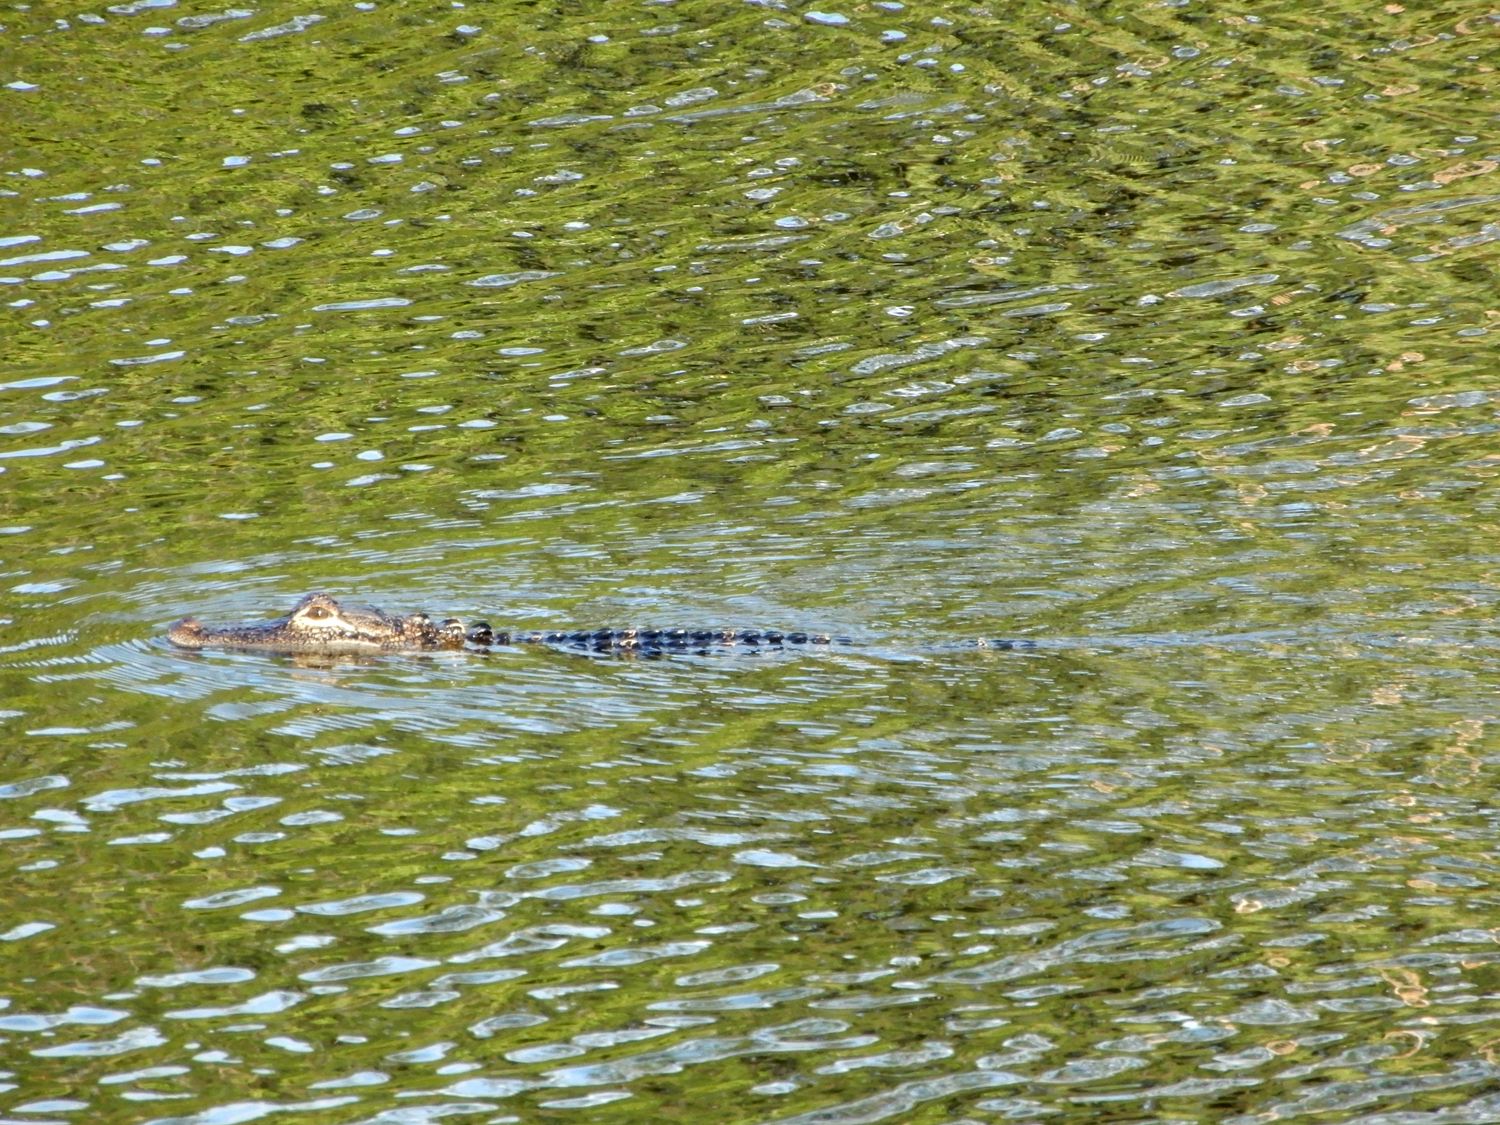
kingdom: Animalia
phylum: Chordata
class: Crocodylia
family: Alligatoridae
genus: Alligator
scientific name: Alligator mississippiensis
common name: American alligator
